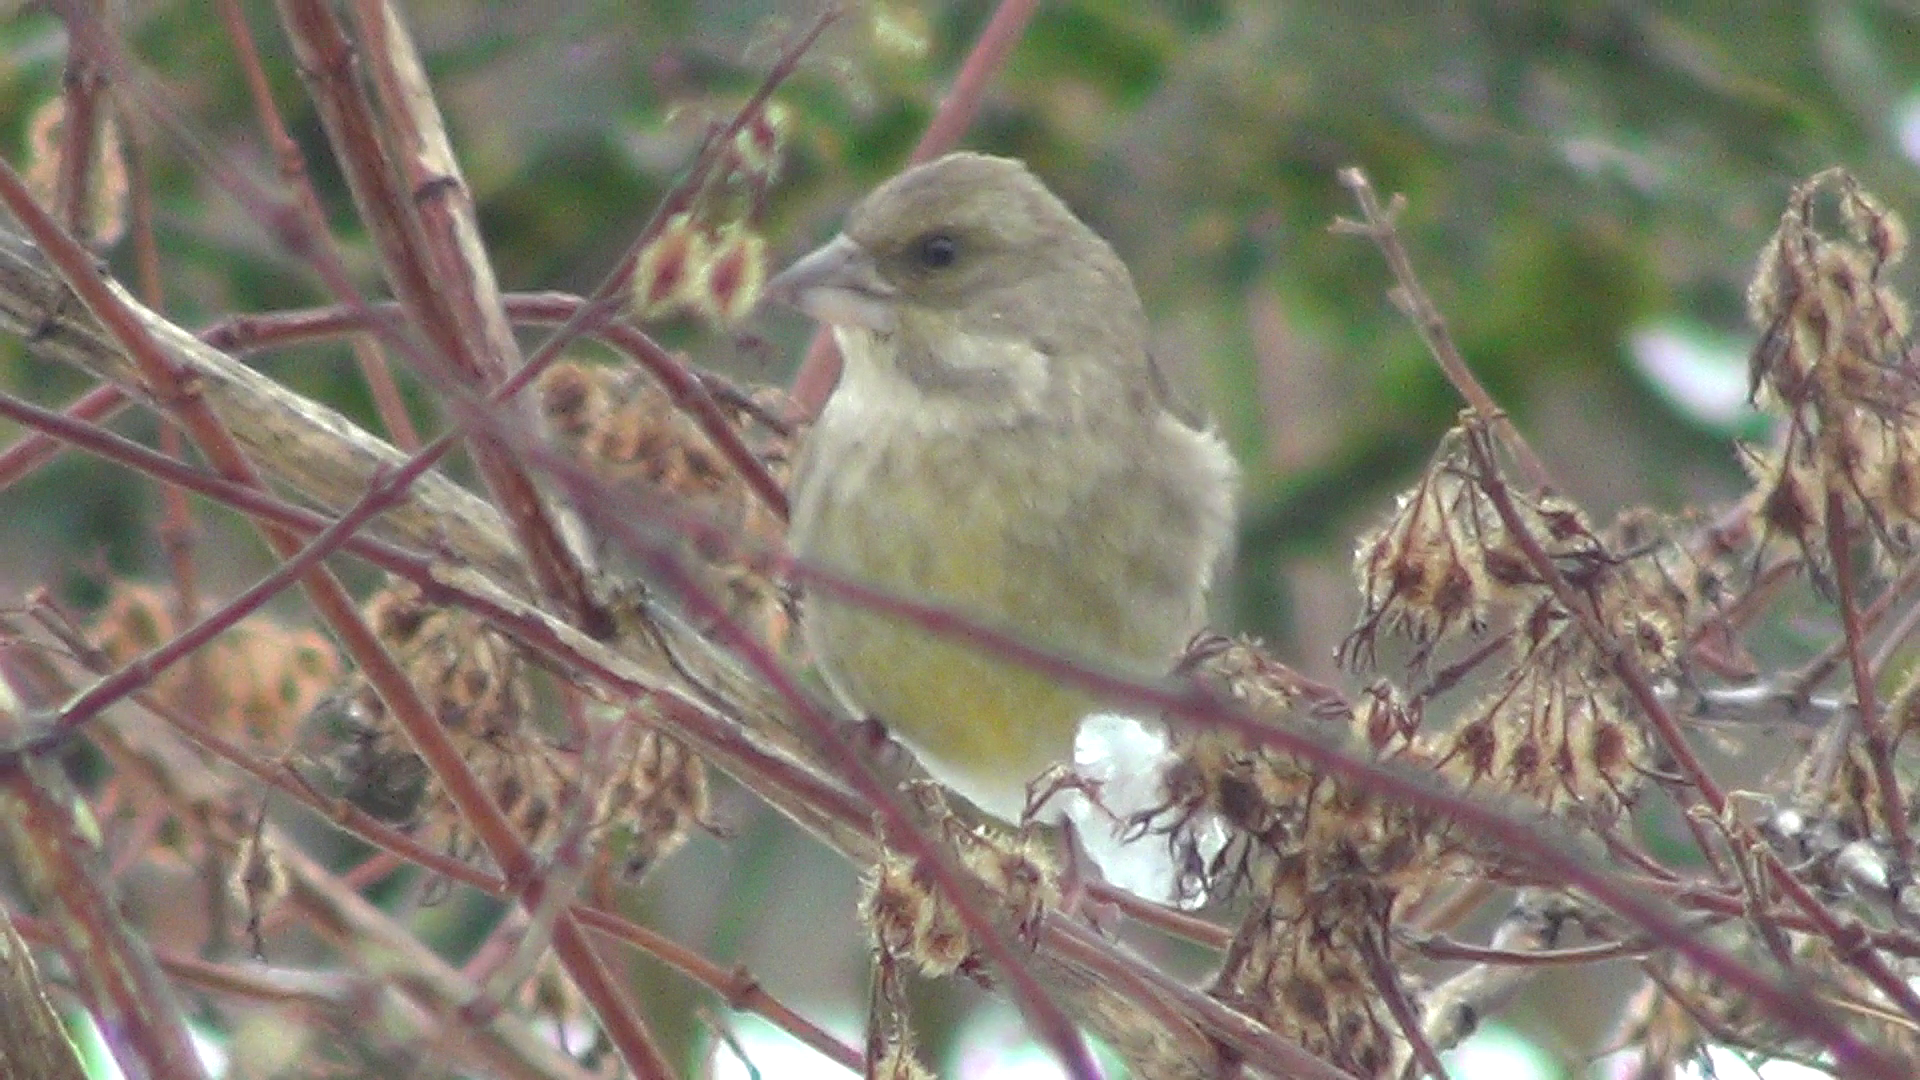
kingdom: Plantae
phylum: Tracheophyta
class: Liliopsida
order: Poales
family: Poaceae
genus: Chloris
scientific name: Chloris chloris
